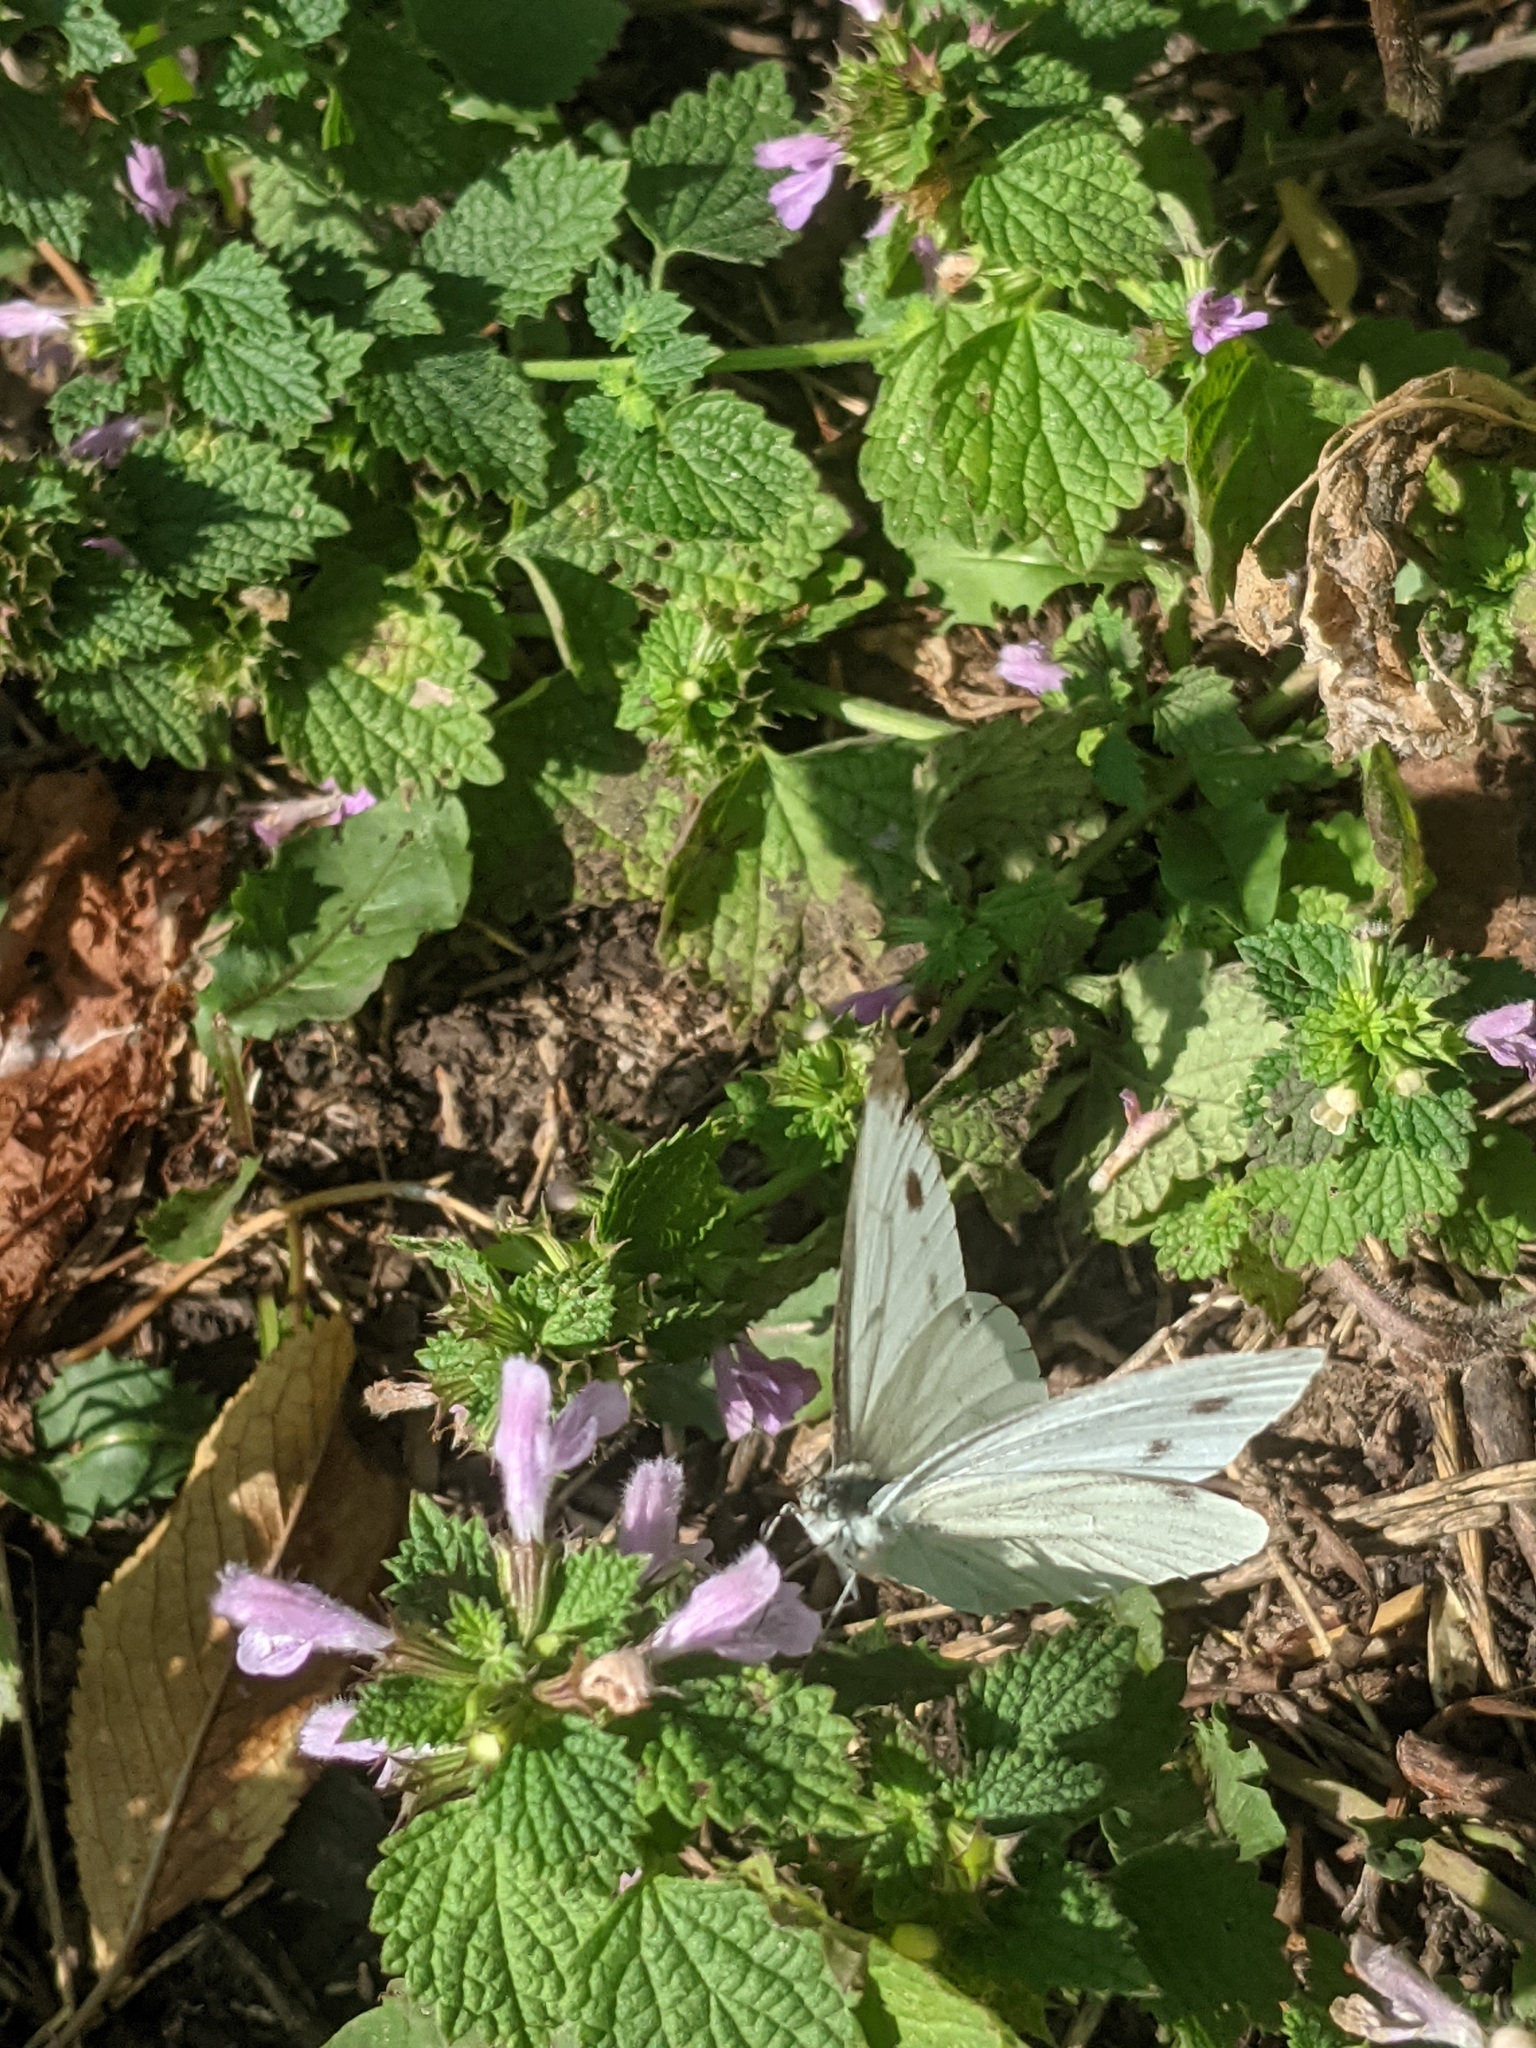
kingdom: Animalia
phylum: Arthropoda
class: Insecta
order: Lepidoptera
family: Pieridae
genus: Pieris
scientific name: Pieris brassicae
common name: Large white
